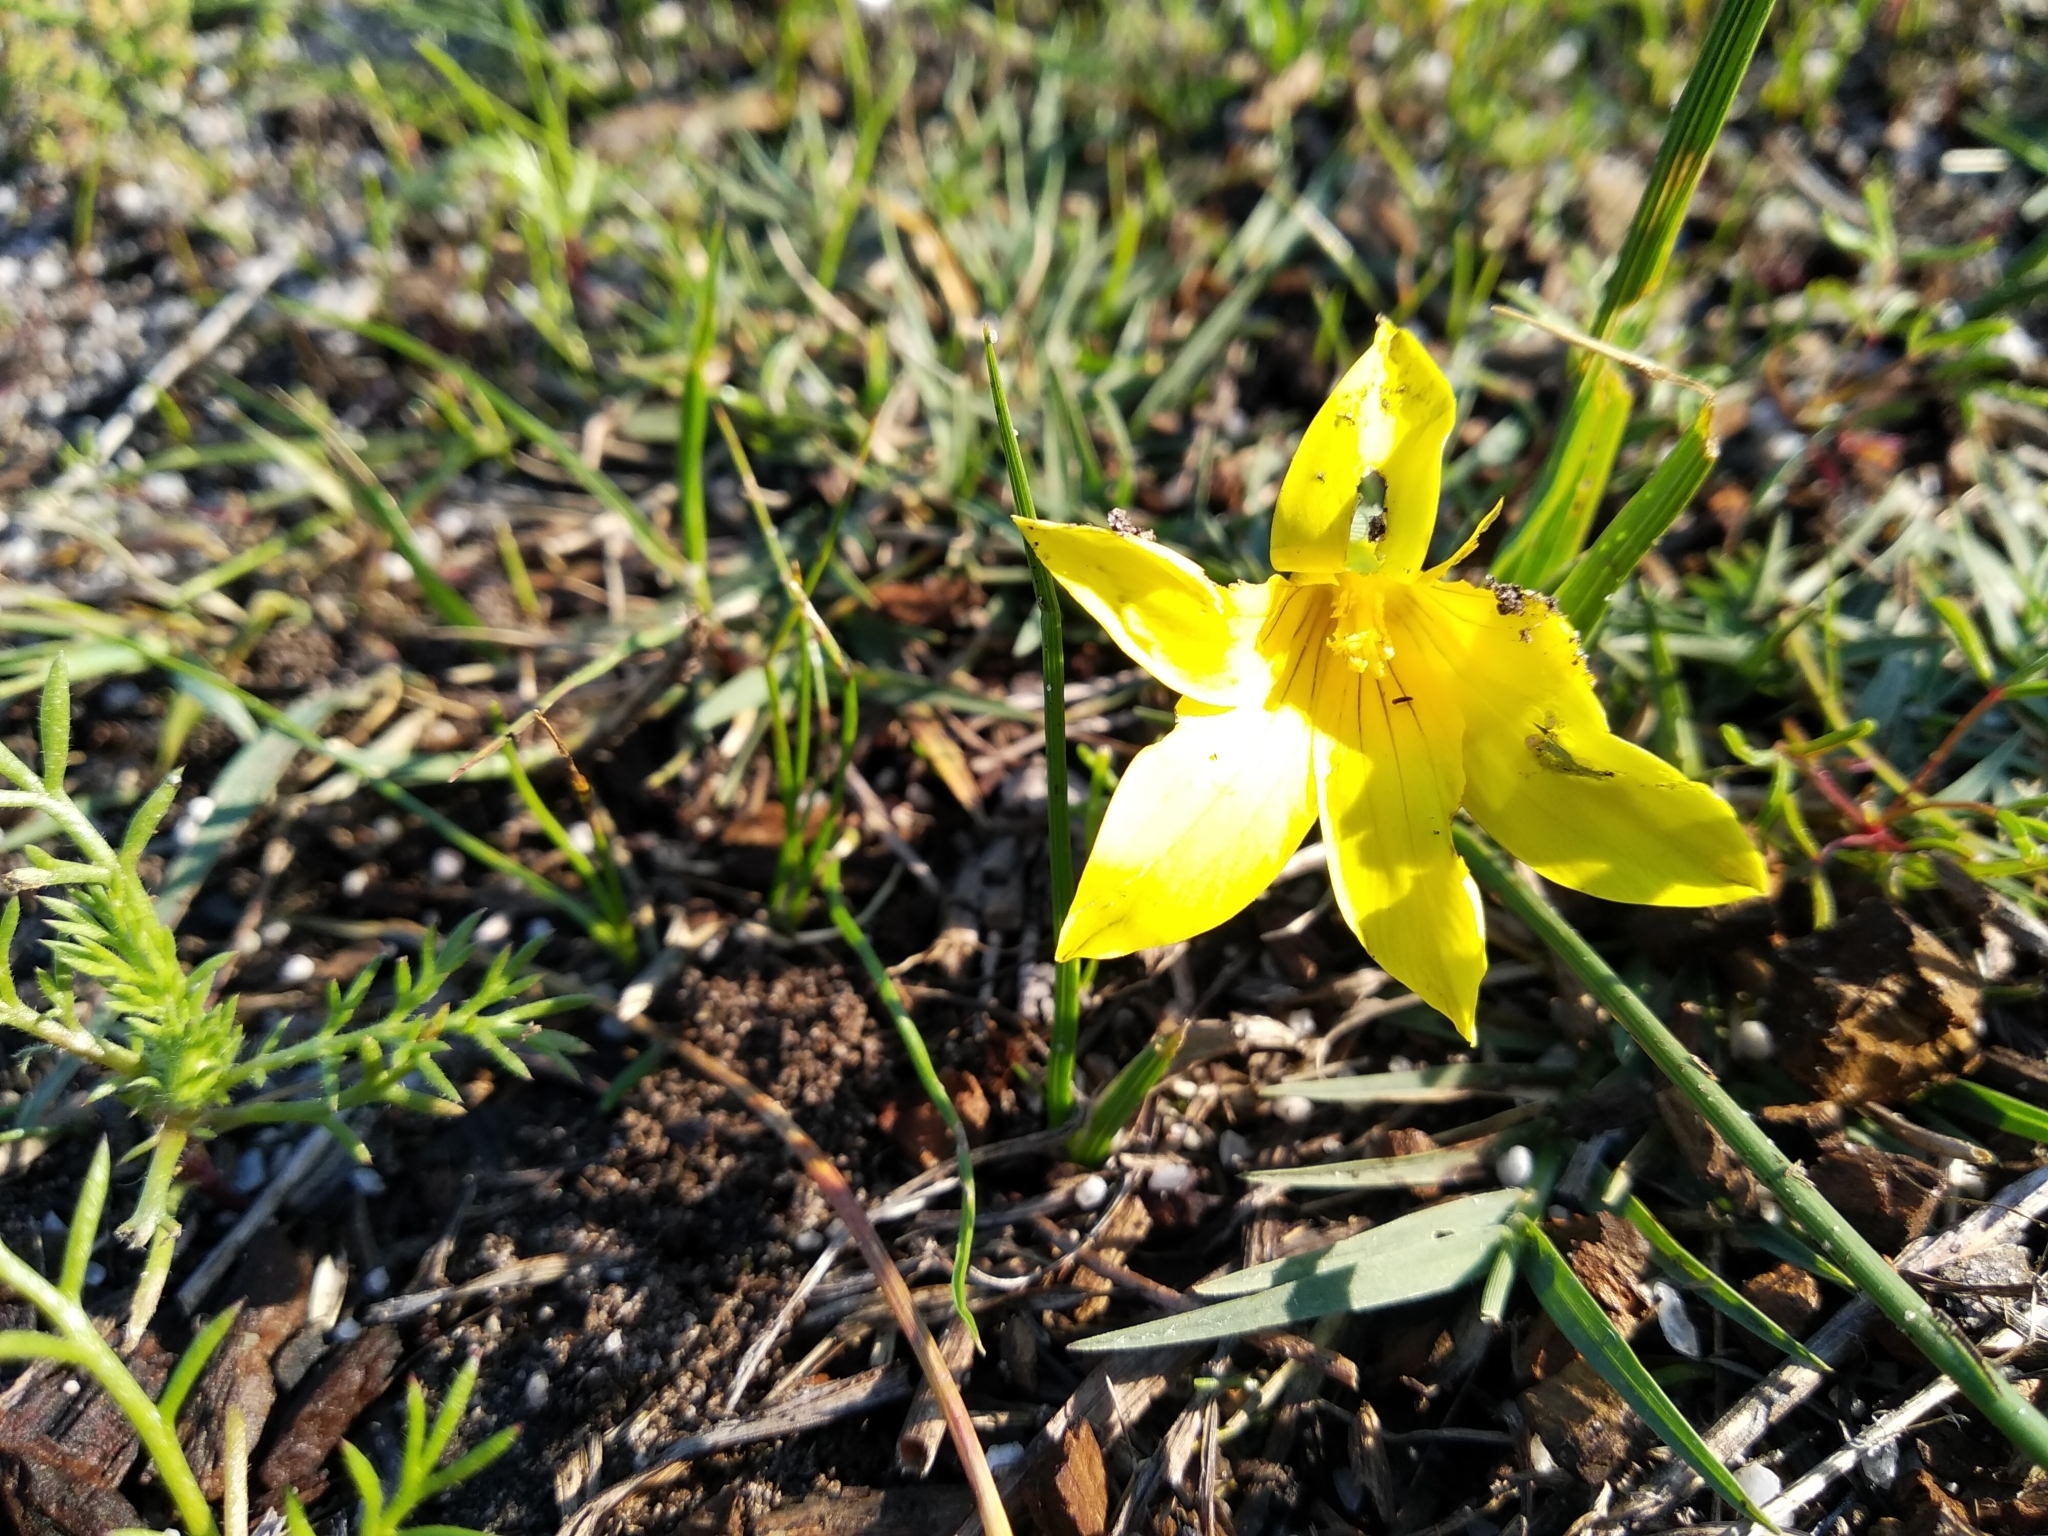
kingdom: Plantae
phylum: Tracheophyta
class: Liliopsida
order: Asparagales
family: Iridaceae
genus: Romulea
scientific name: Romulea flava
